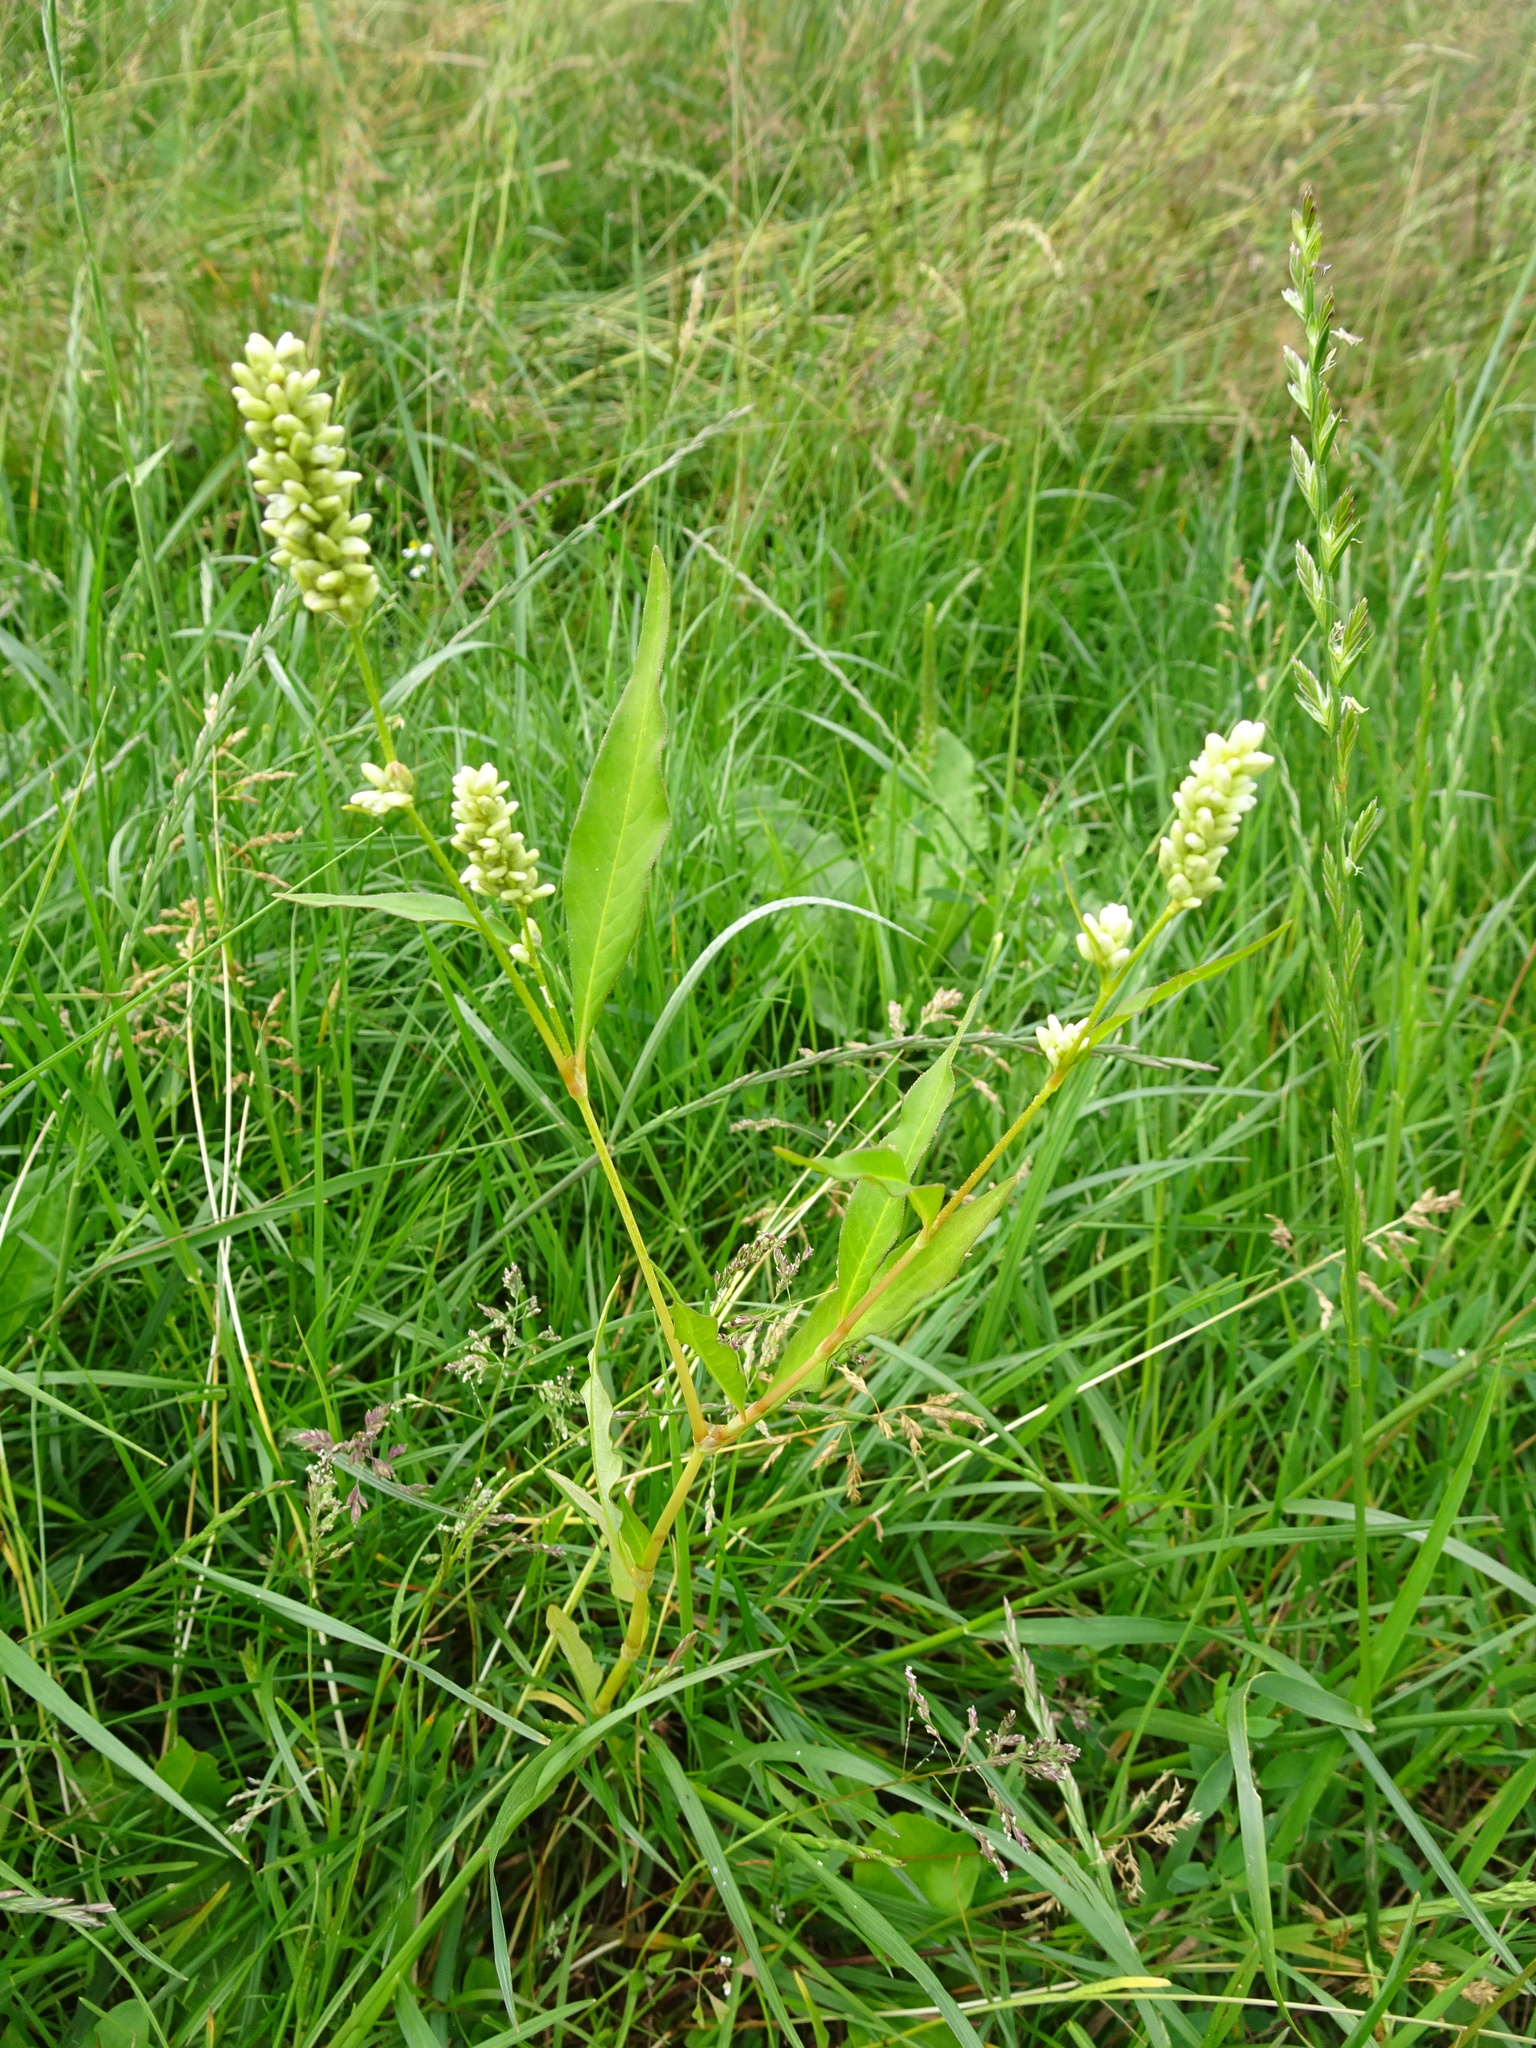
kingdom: Plantae
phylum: Tracheophyta
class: Magnoliopsida
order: Caryophyllales
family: Polygonaceae
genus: Persicaria
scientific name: Persicaria lapathifolia
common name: Curlytop knotweed
